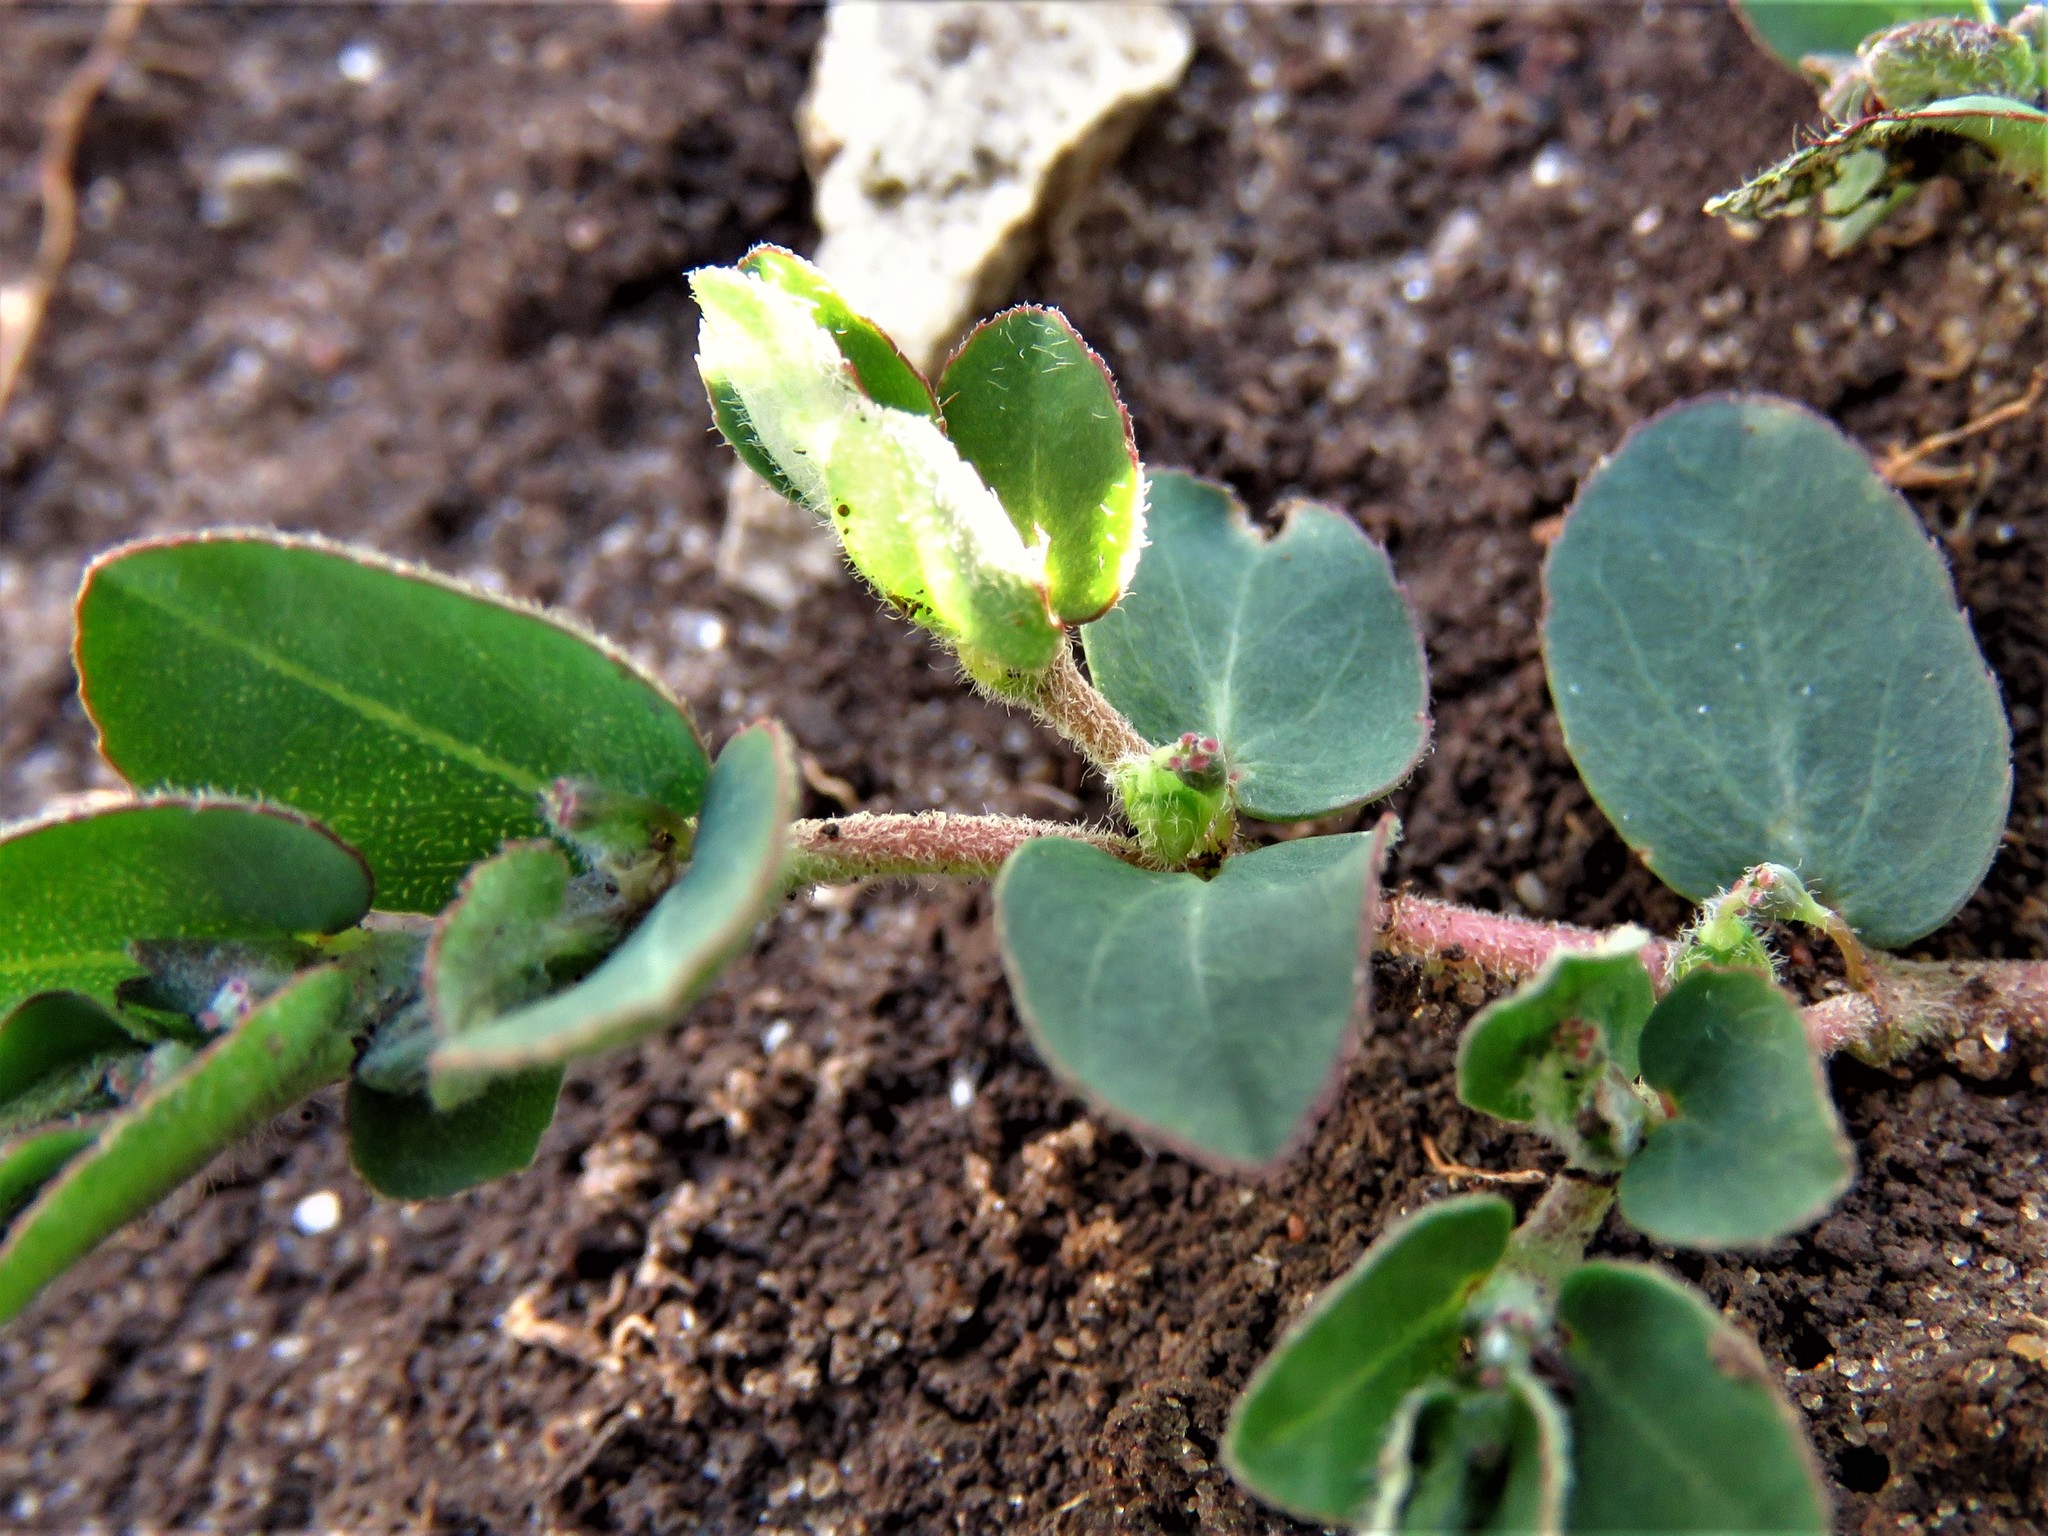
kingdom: Plantae
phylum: Tracheophyta
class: Magnoliopsida
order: Malpighiales
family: Euphorbiaceae
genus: Euphorbia
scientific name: Euphorbia prostrata
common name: Prostrate sandmat
